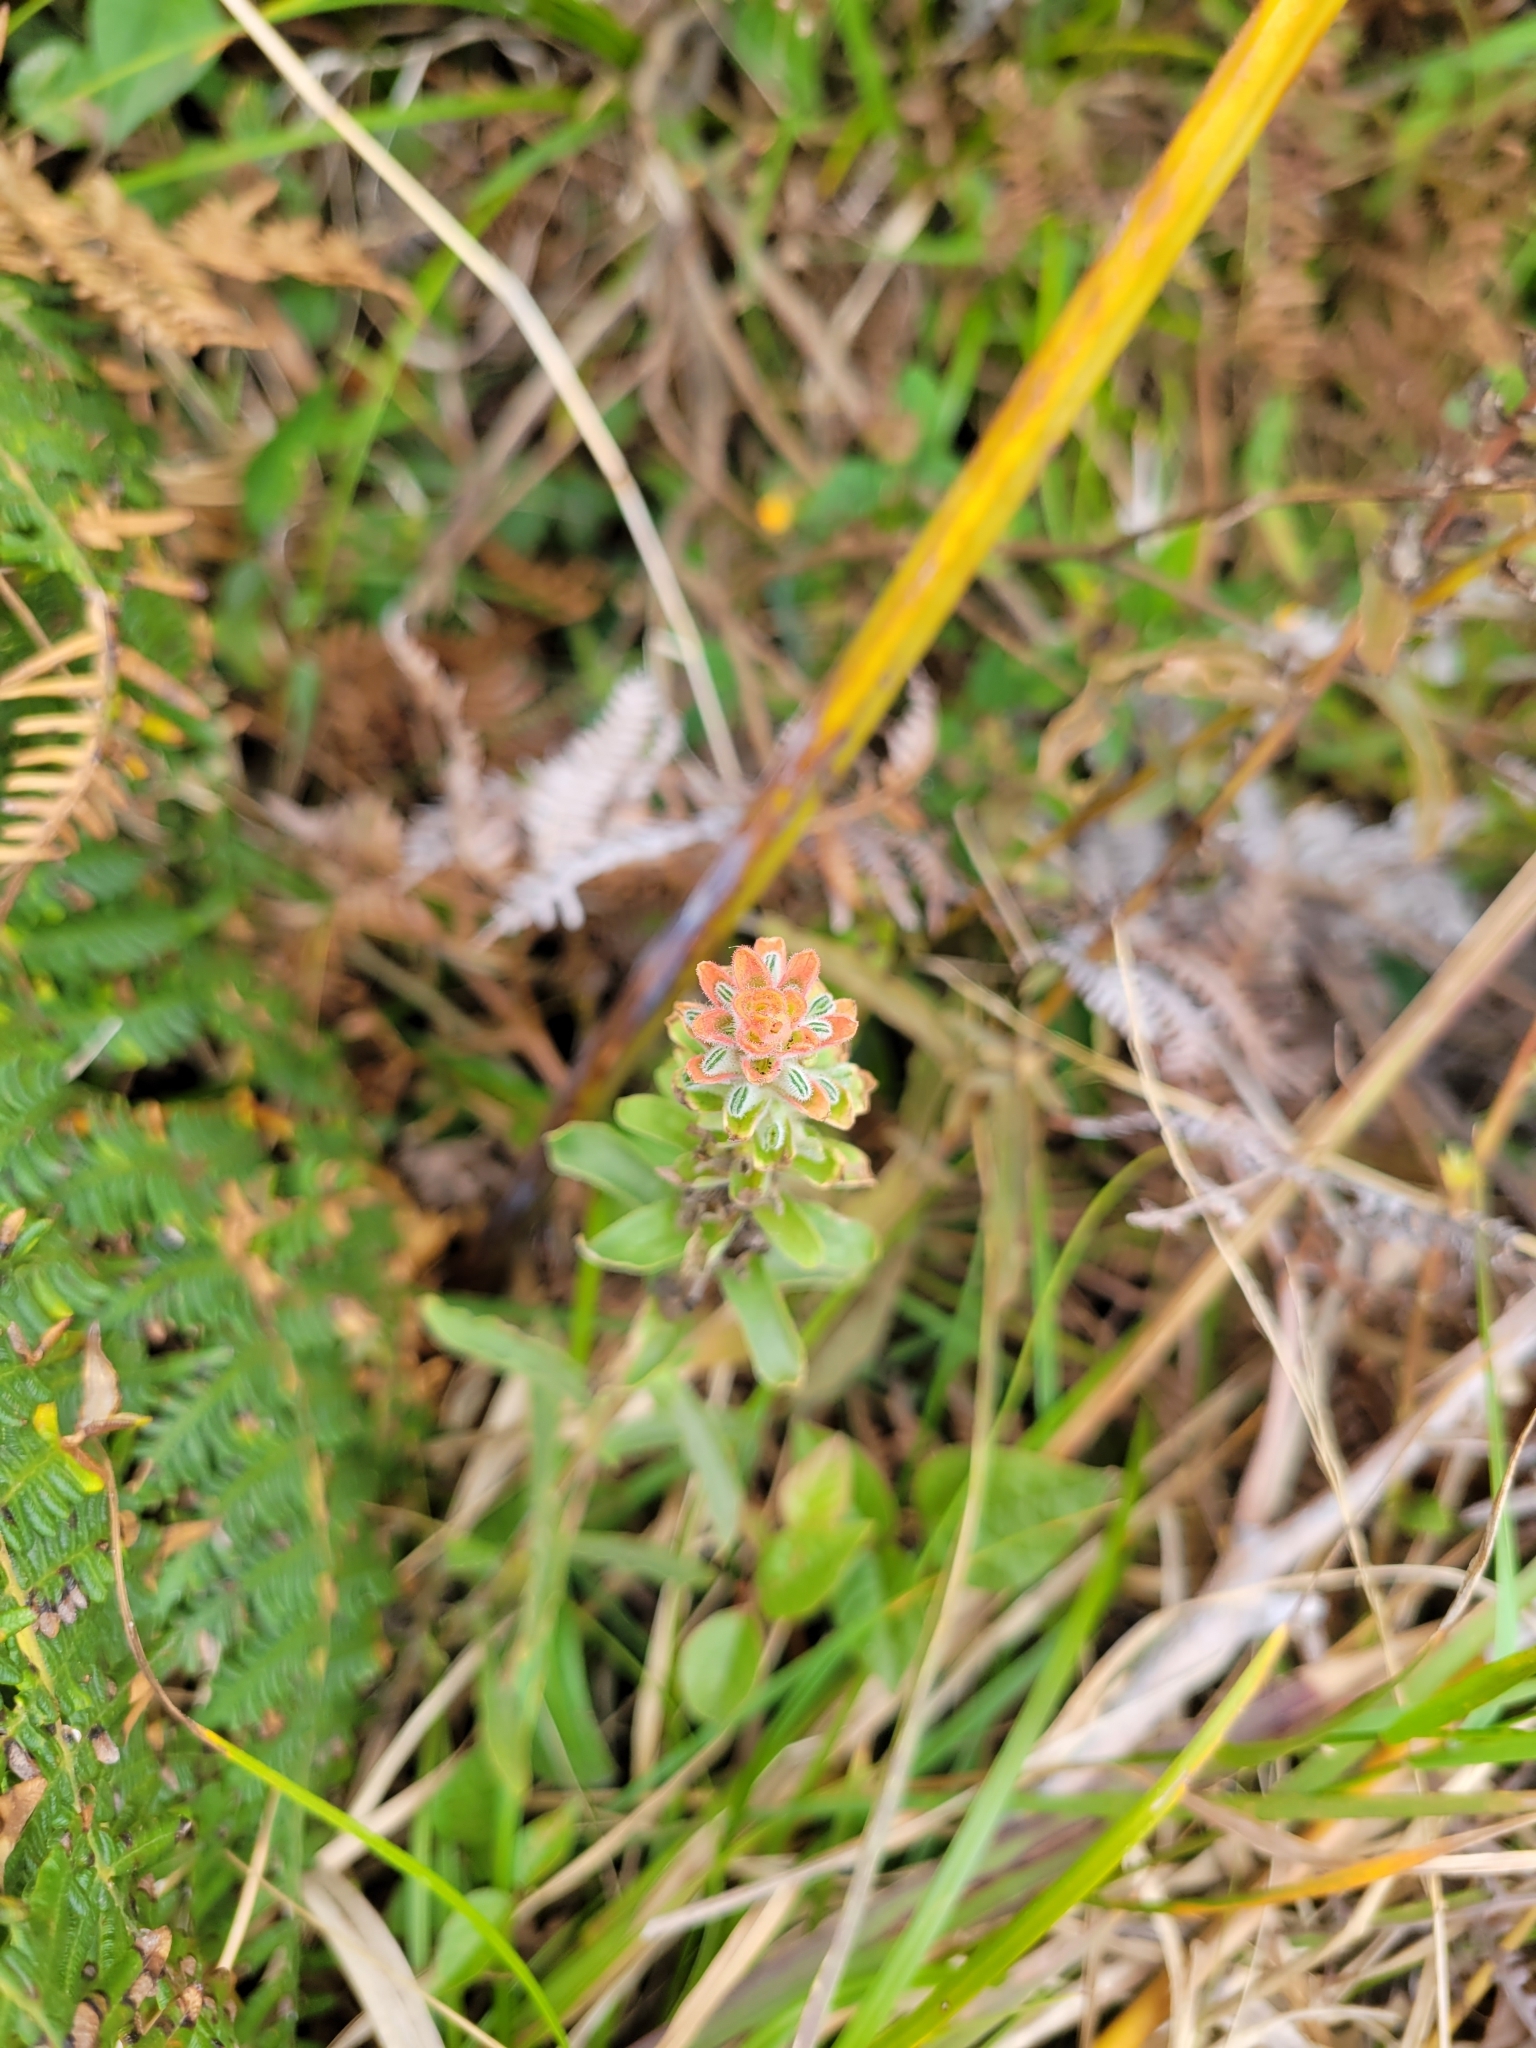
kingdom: Plantae
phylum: Tracheophyta
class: Magnoliopsida
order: Lamiales
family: Orobanchaceae
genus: Castilleja
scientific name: Castilleja arvensis
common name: Indian paintbrush
